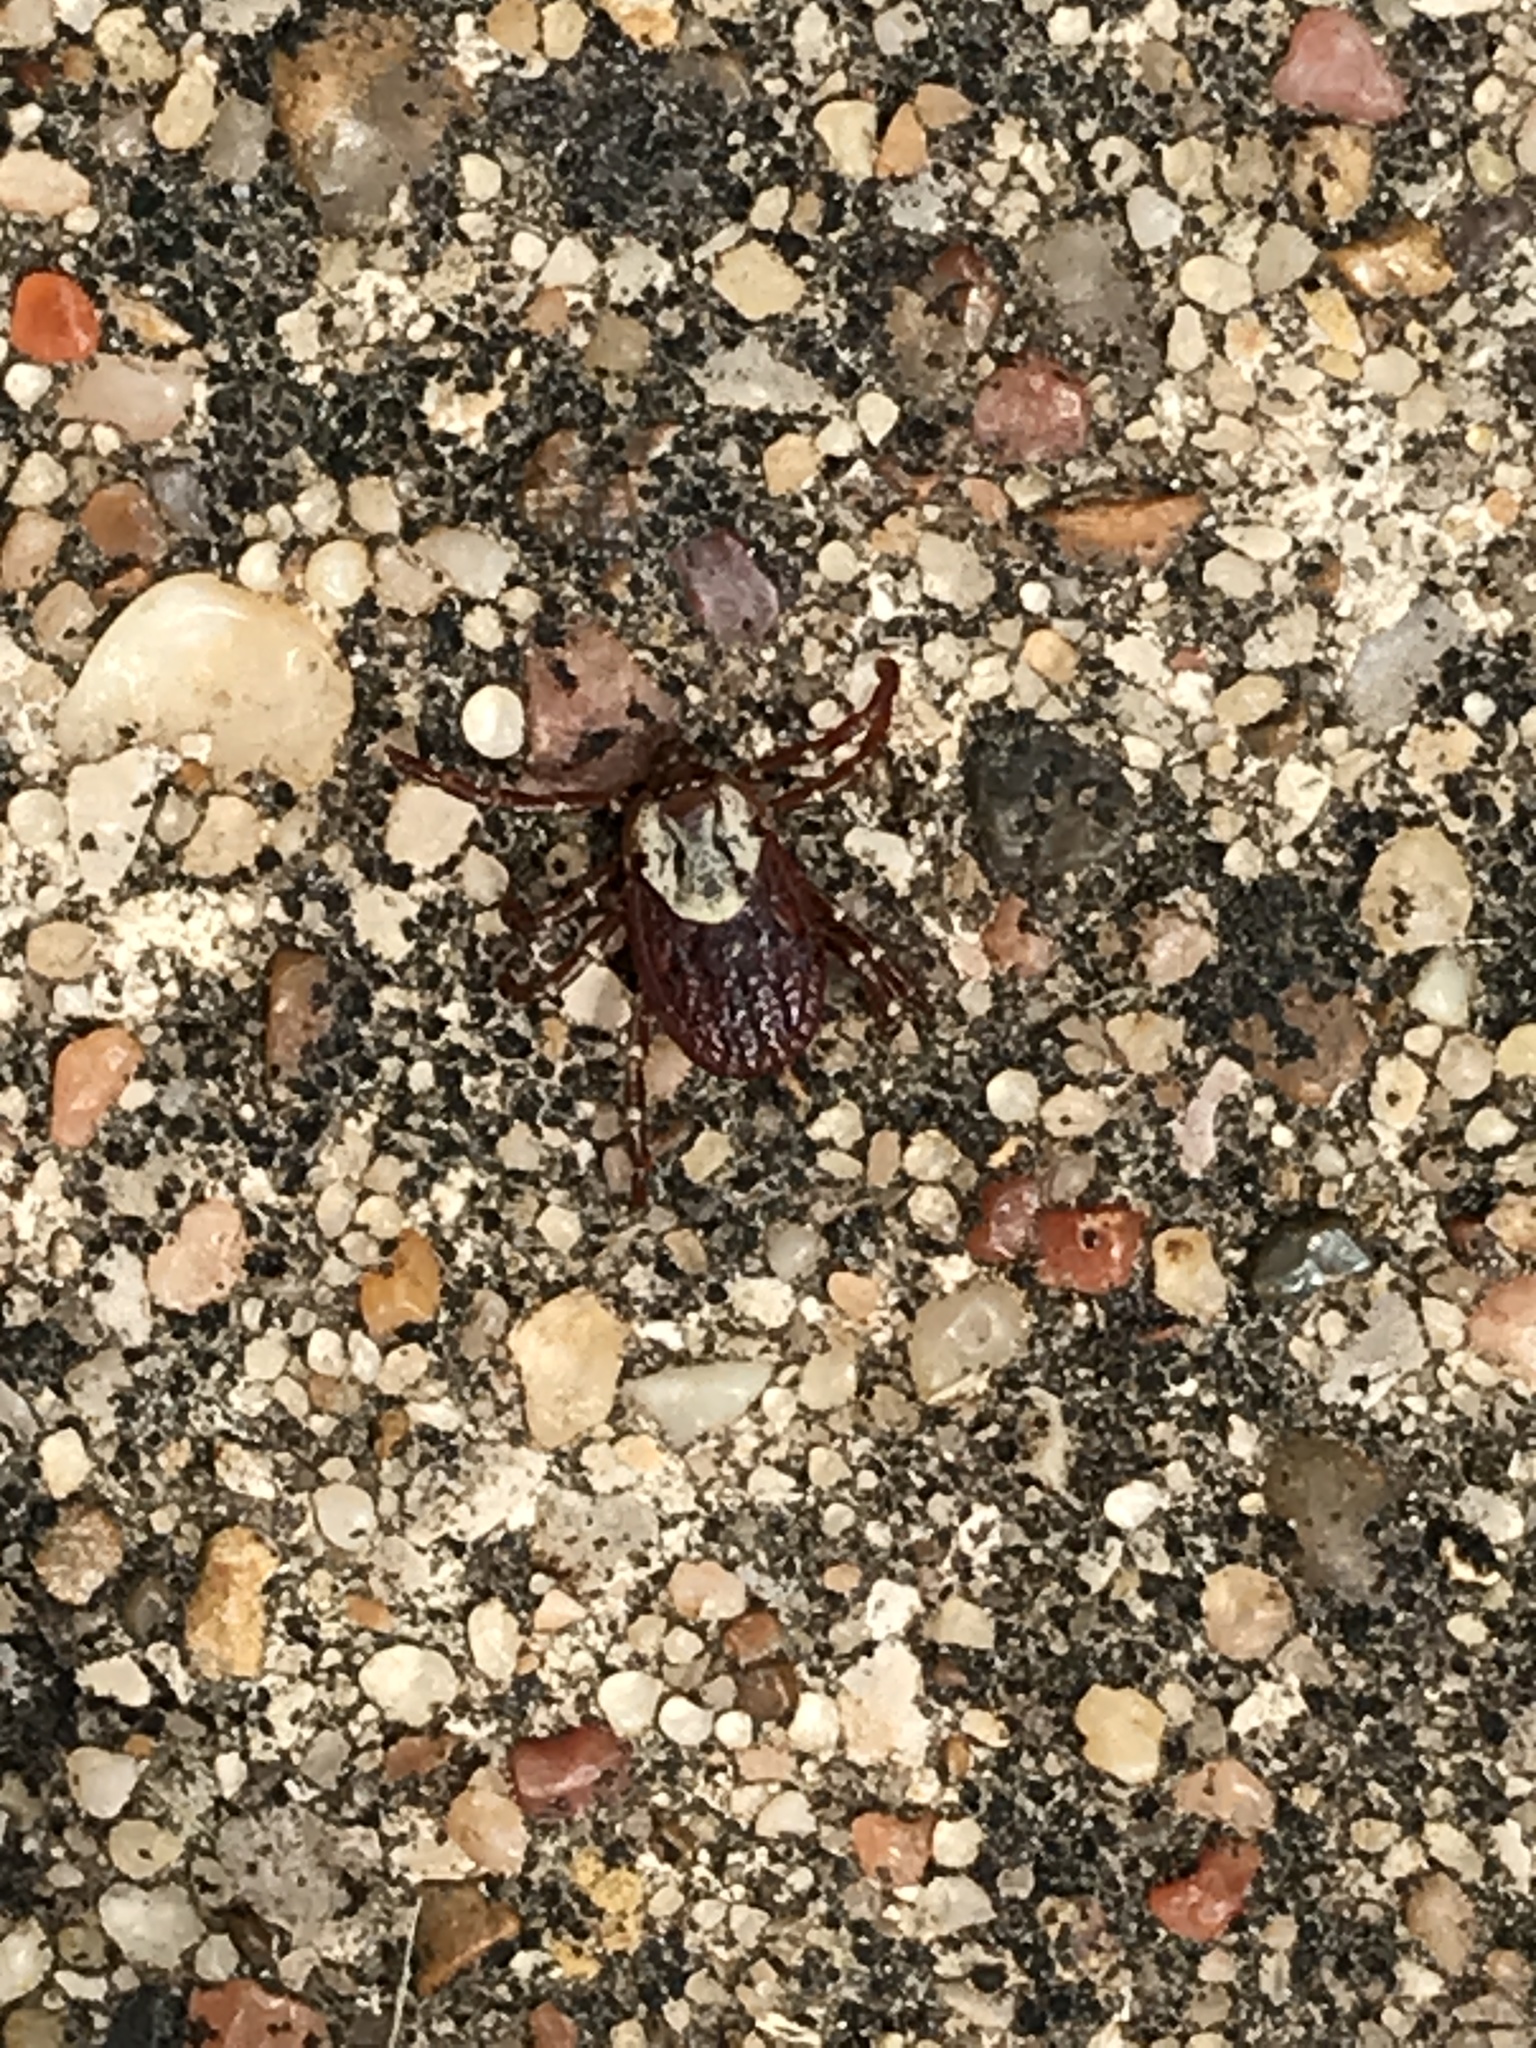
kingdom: Animalia
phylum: Arthropoda
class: Arachnida
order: Ixodida
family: Ixodidae
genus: Dermacentor
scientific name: Dermacentor variabilis
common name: American dog tick
